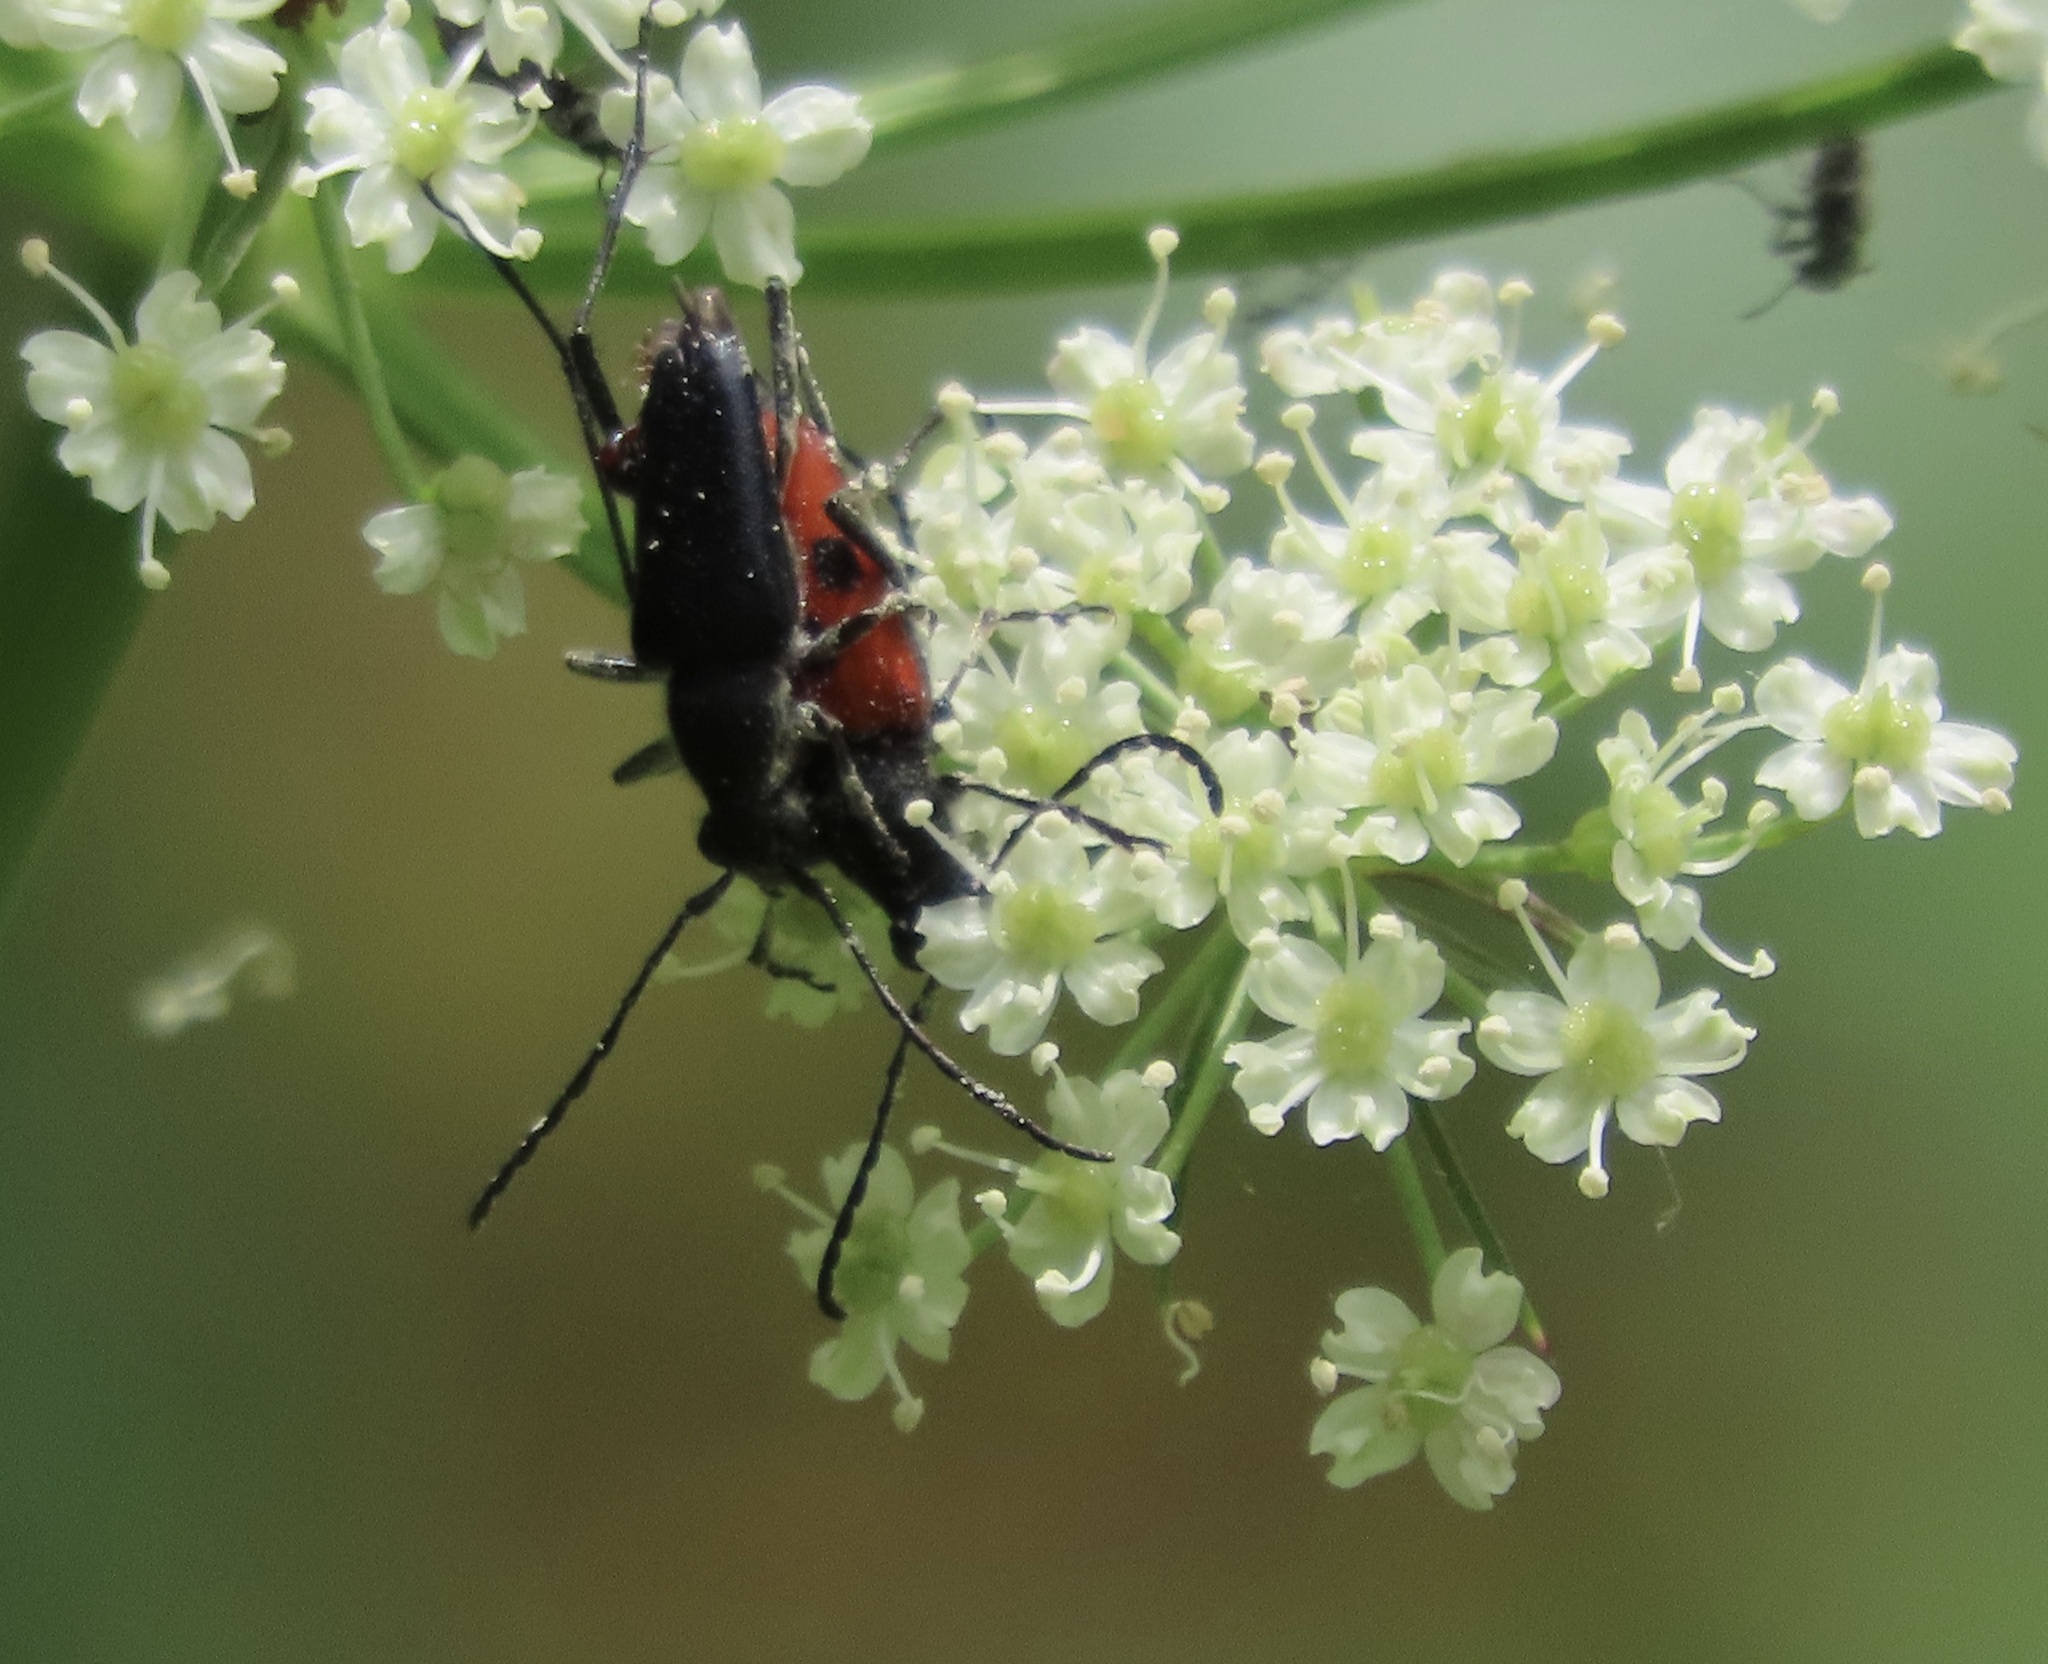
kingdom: Animalia
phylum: Arthropoda
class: Insecta
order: Coleoptera
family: Cerambycidae
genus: Anastrangalia
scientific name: Anastrangalia laetifica
